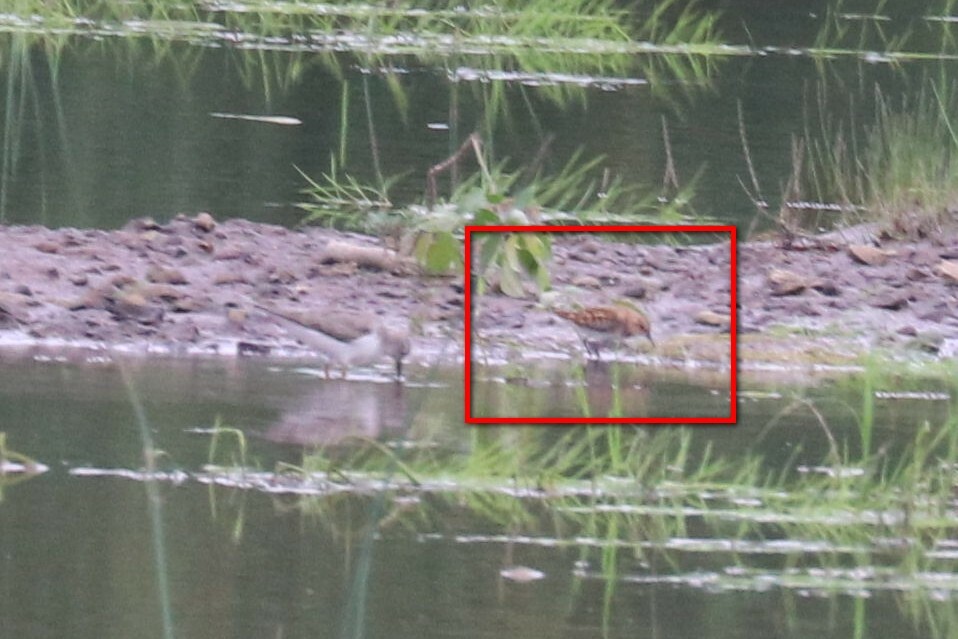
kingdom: Animalia
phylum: Chordata
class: Aves
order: Charadriiformes
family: Scolopacidae
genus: Calidris
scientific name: Calidris minuta
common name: Little stint
